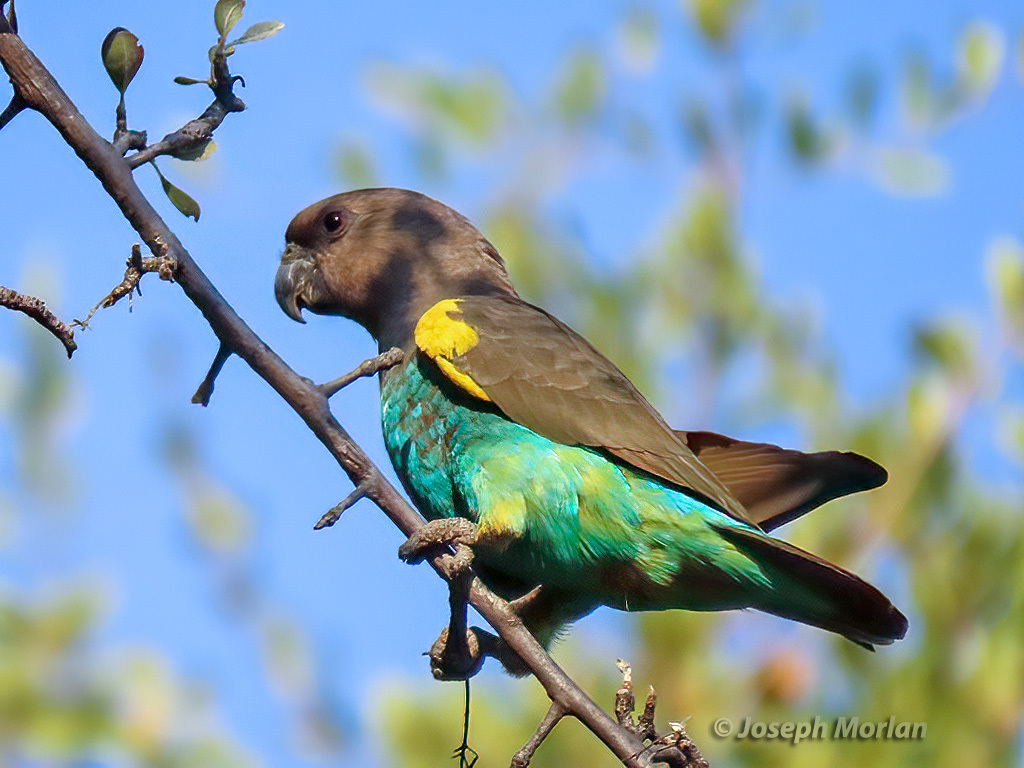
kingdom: Animalia
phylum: Chordata
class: Aves
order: Psittaciformes
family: Psittacidae
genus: Poicephalus
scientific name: Poicephalus meyeri
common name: Meyer's parrot
